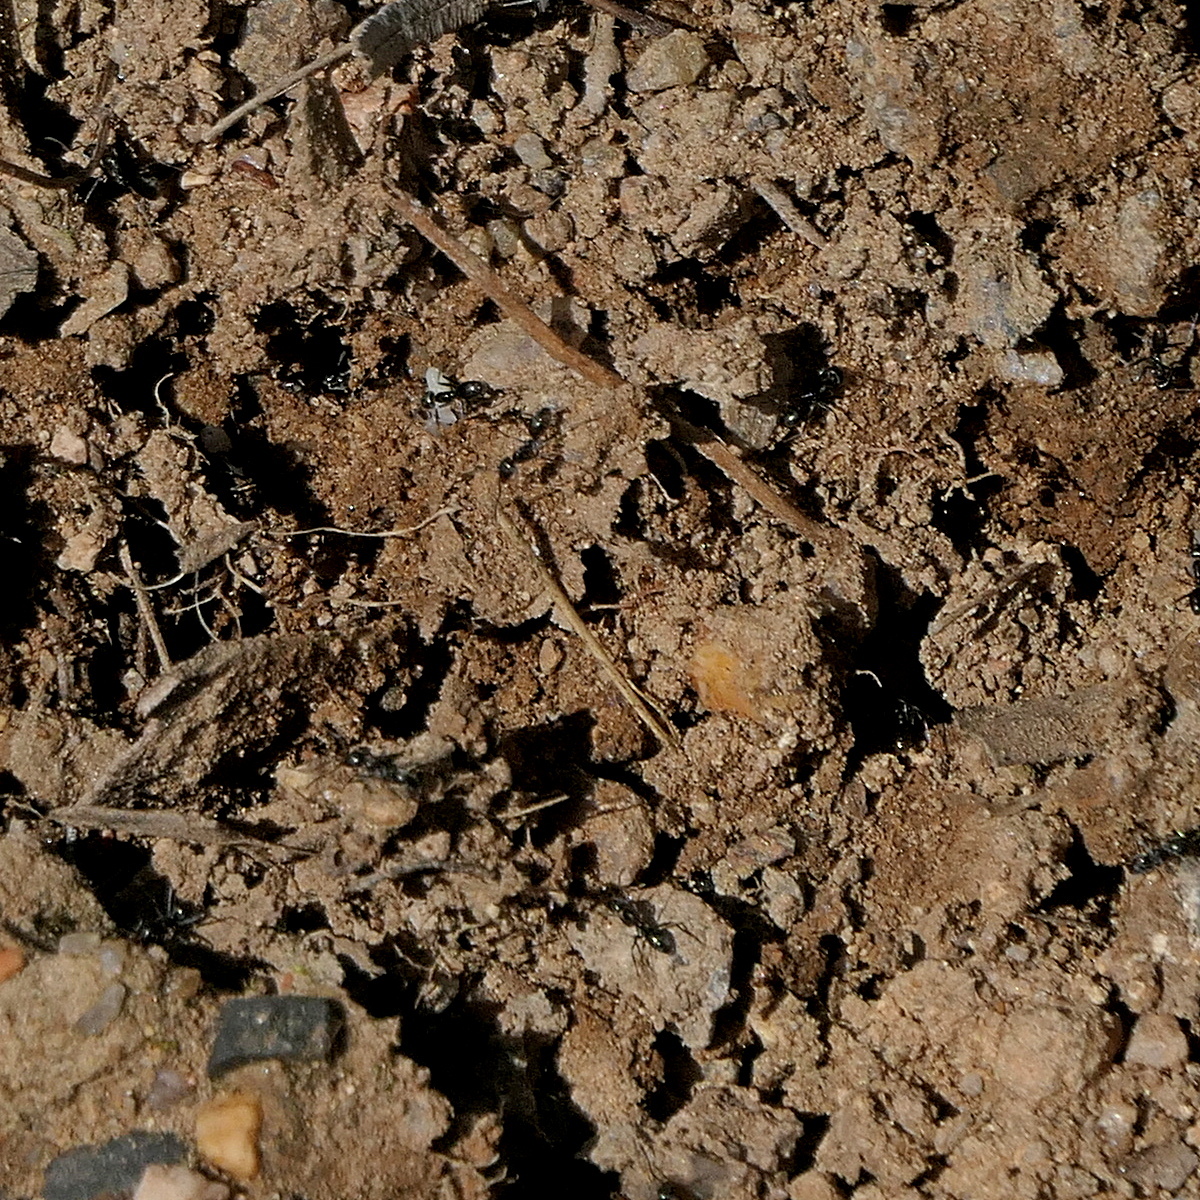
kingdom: Animalia
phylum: Chordata
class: Mammalia
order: Monotremata
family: Tachyglossidae
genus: Tachyglossus
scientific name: Tachyglossus aculeatus
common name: Short-beaked echidna
